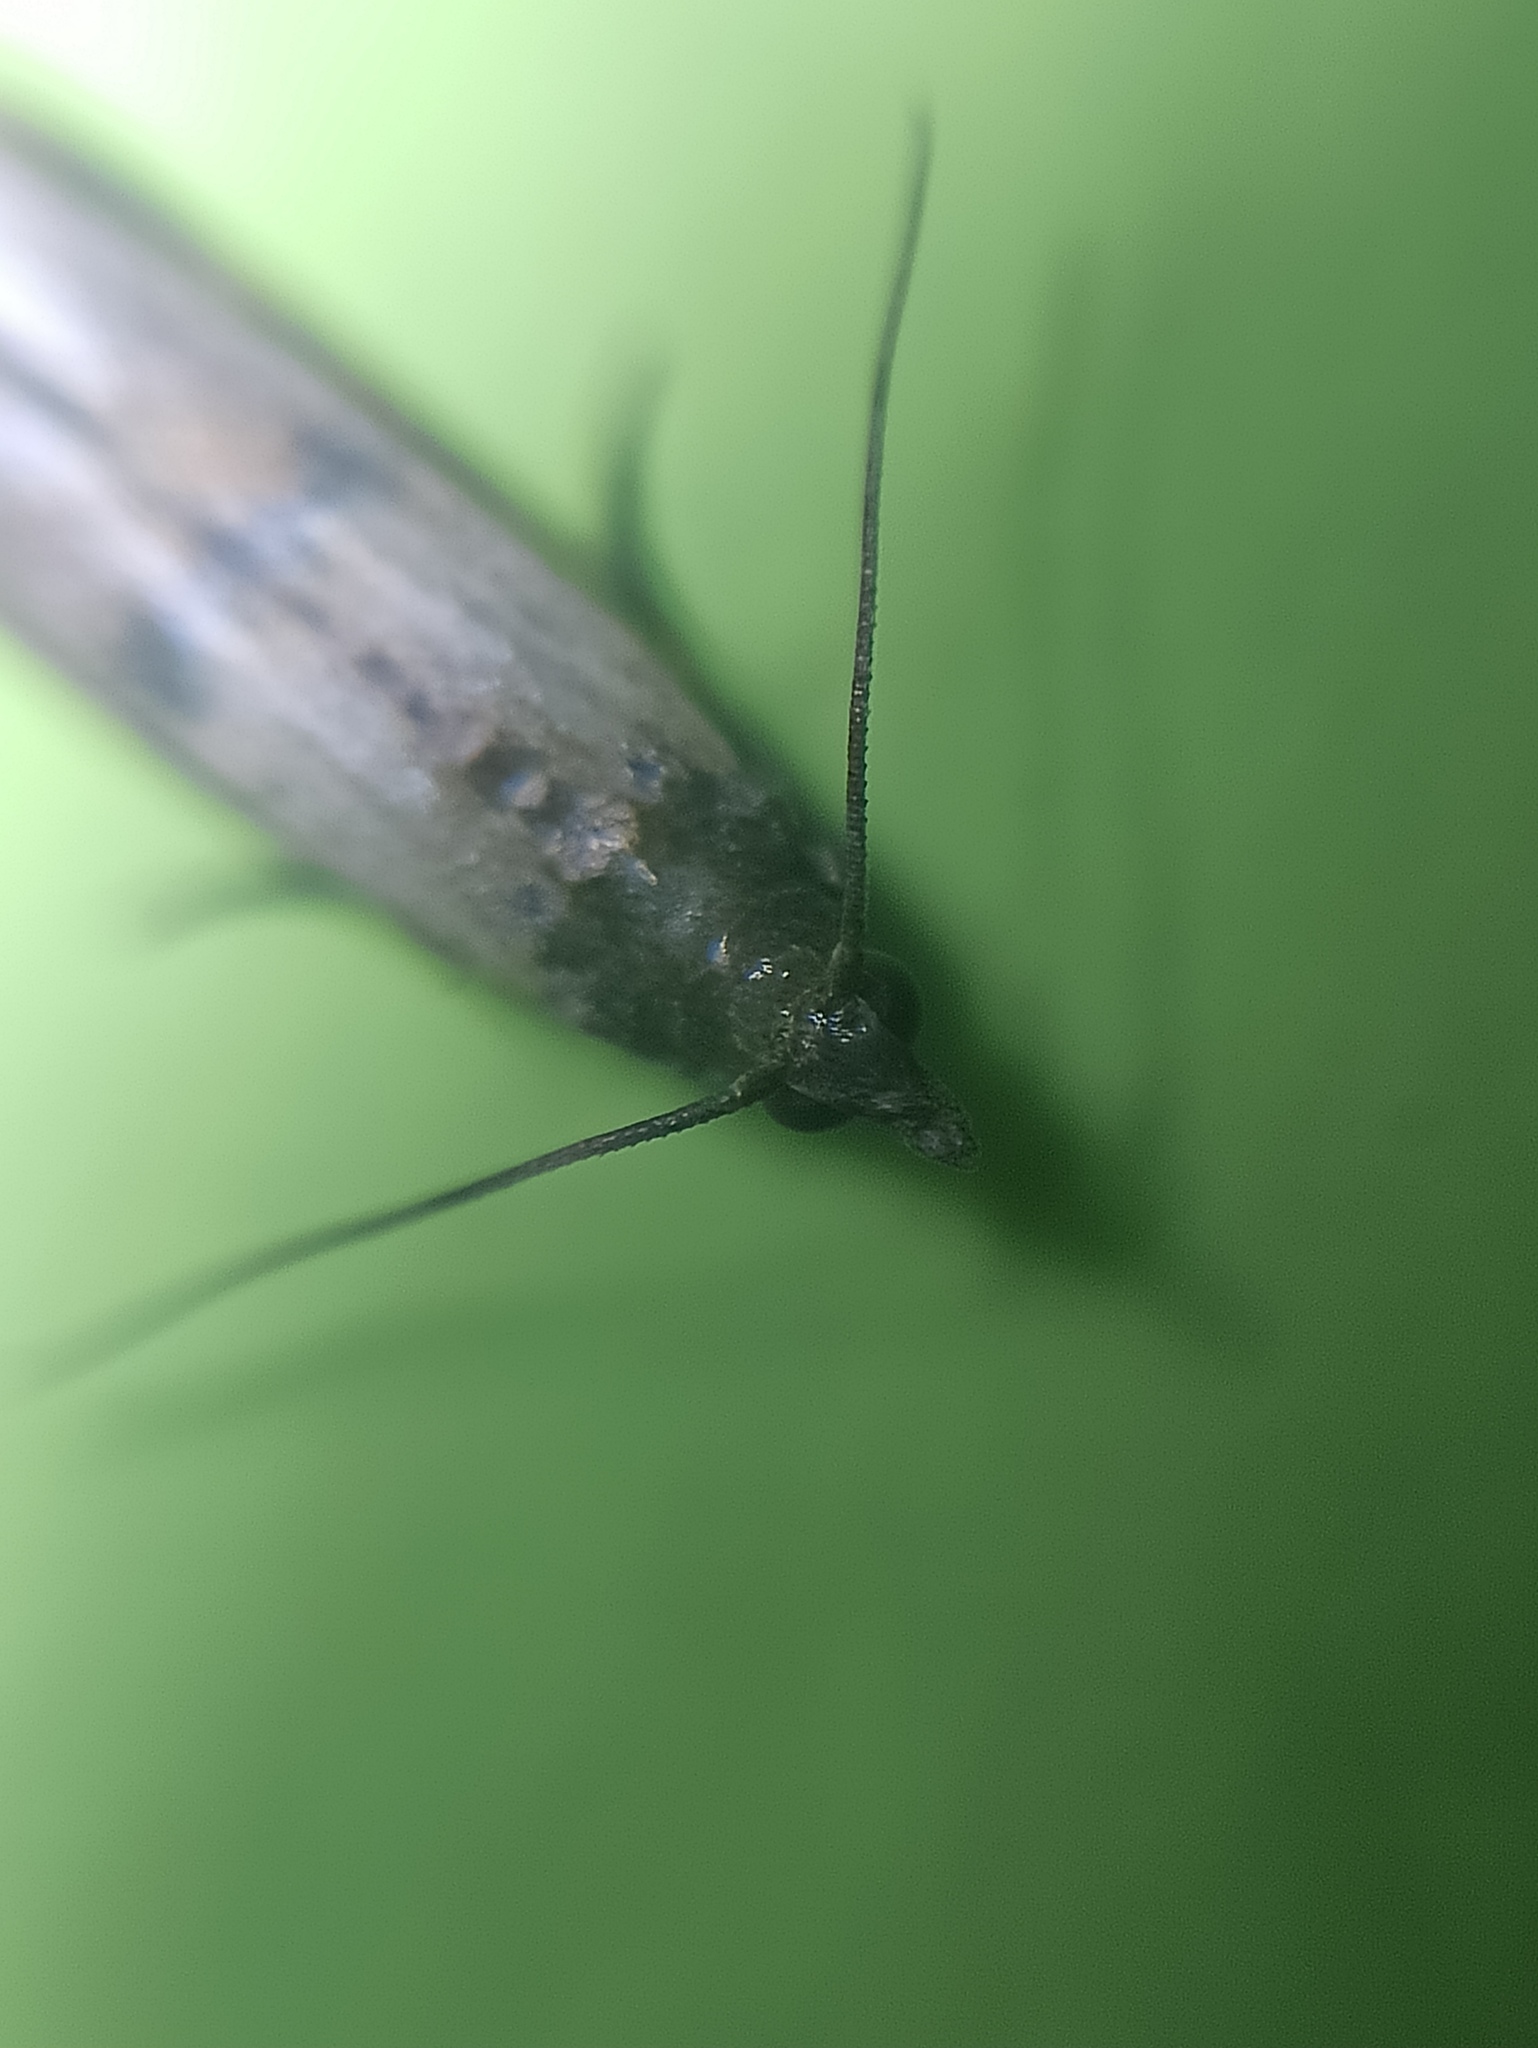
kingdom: Animalia
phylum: Arthropoda
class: Insecta
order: Lepidoptera
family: Pyralidae
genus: Plodia
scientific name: Plodia interpunctella
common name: Indian meal moth
